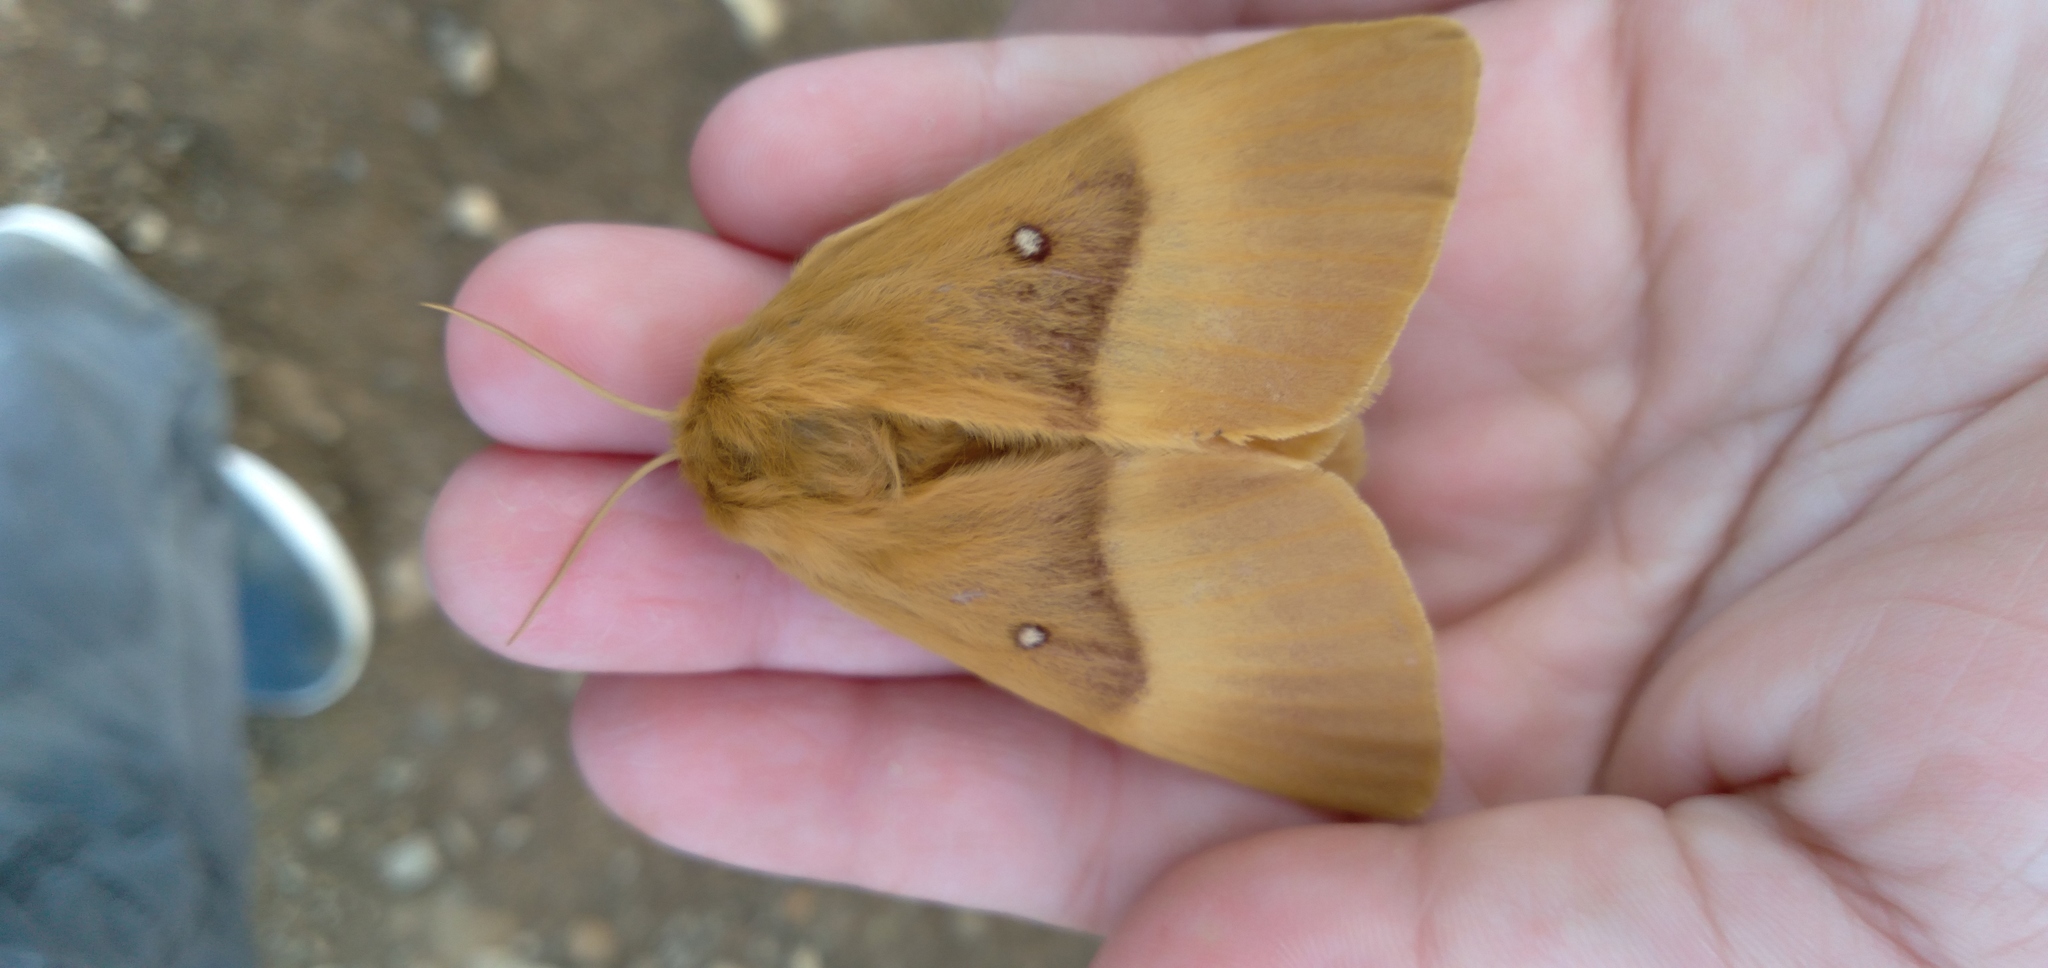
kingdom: Animalia
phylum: Arthropoda
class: Insecta
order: Lepidoptera
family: Lasiocampidae
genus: Lasiocampa
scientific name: Lasiocampa quercus
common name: Oak eggar
